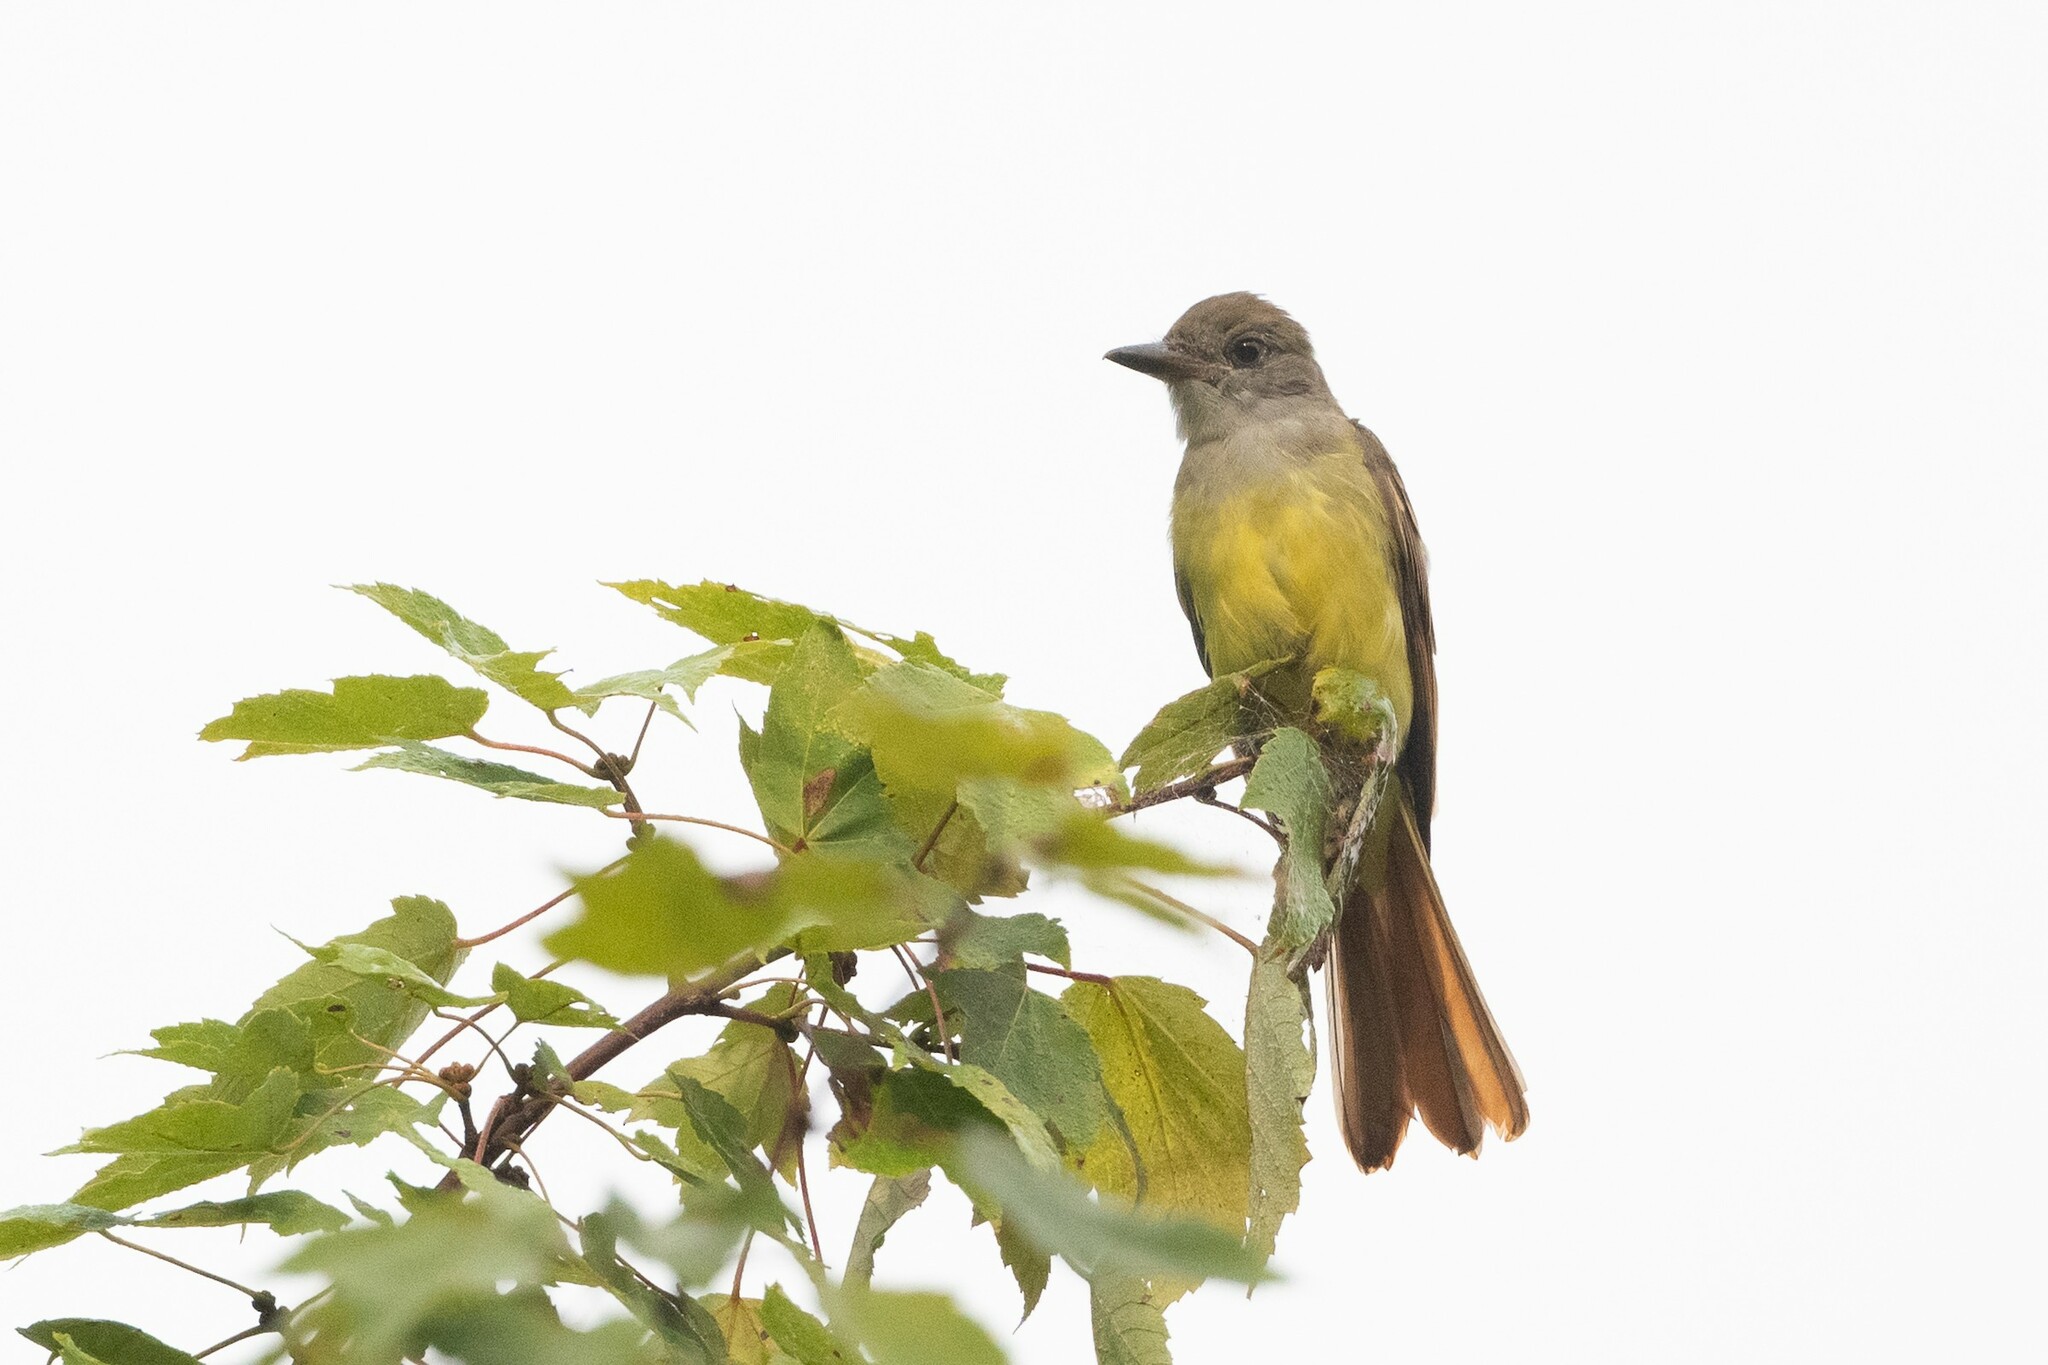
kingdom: Animalia
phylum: Chordata
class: Aves
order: Passeriformes
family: Tyrannidae
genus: Myiarchus
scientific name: Myiarchus crinitus
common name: Great crested flycatcher
